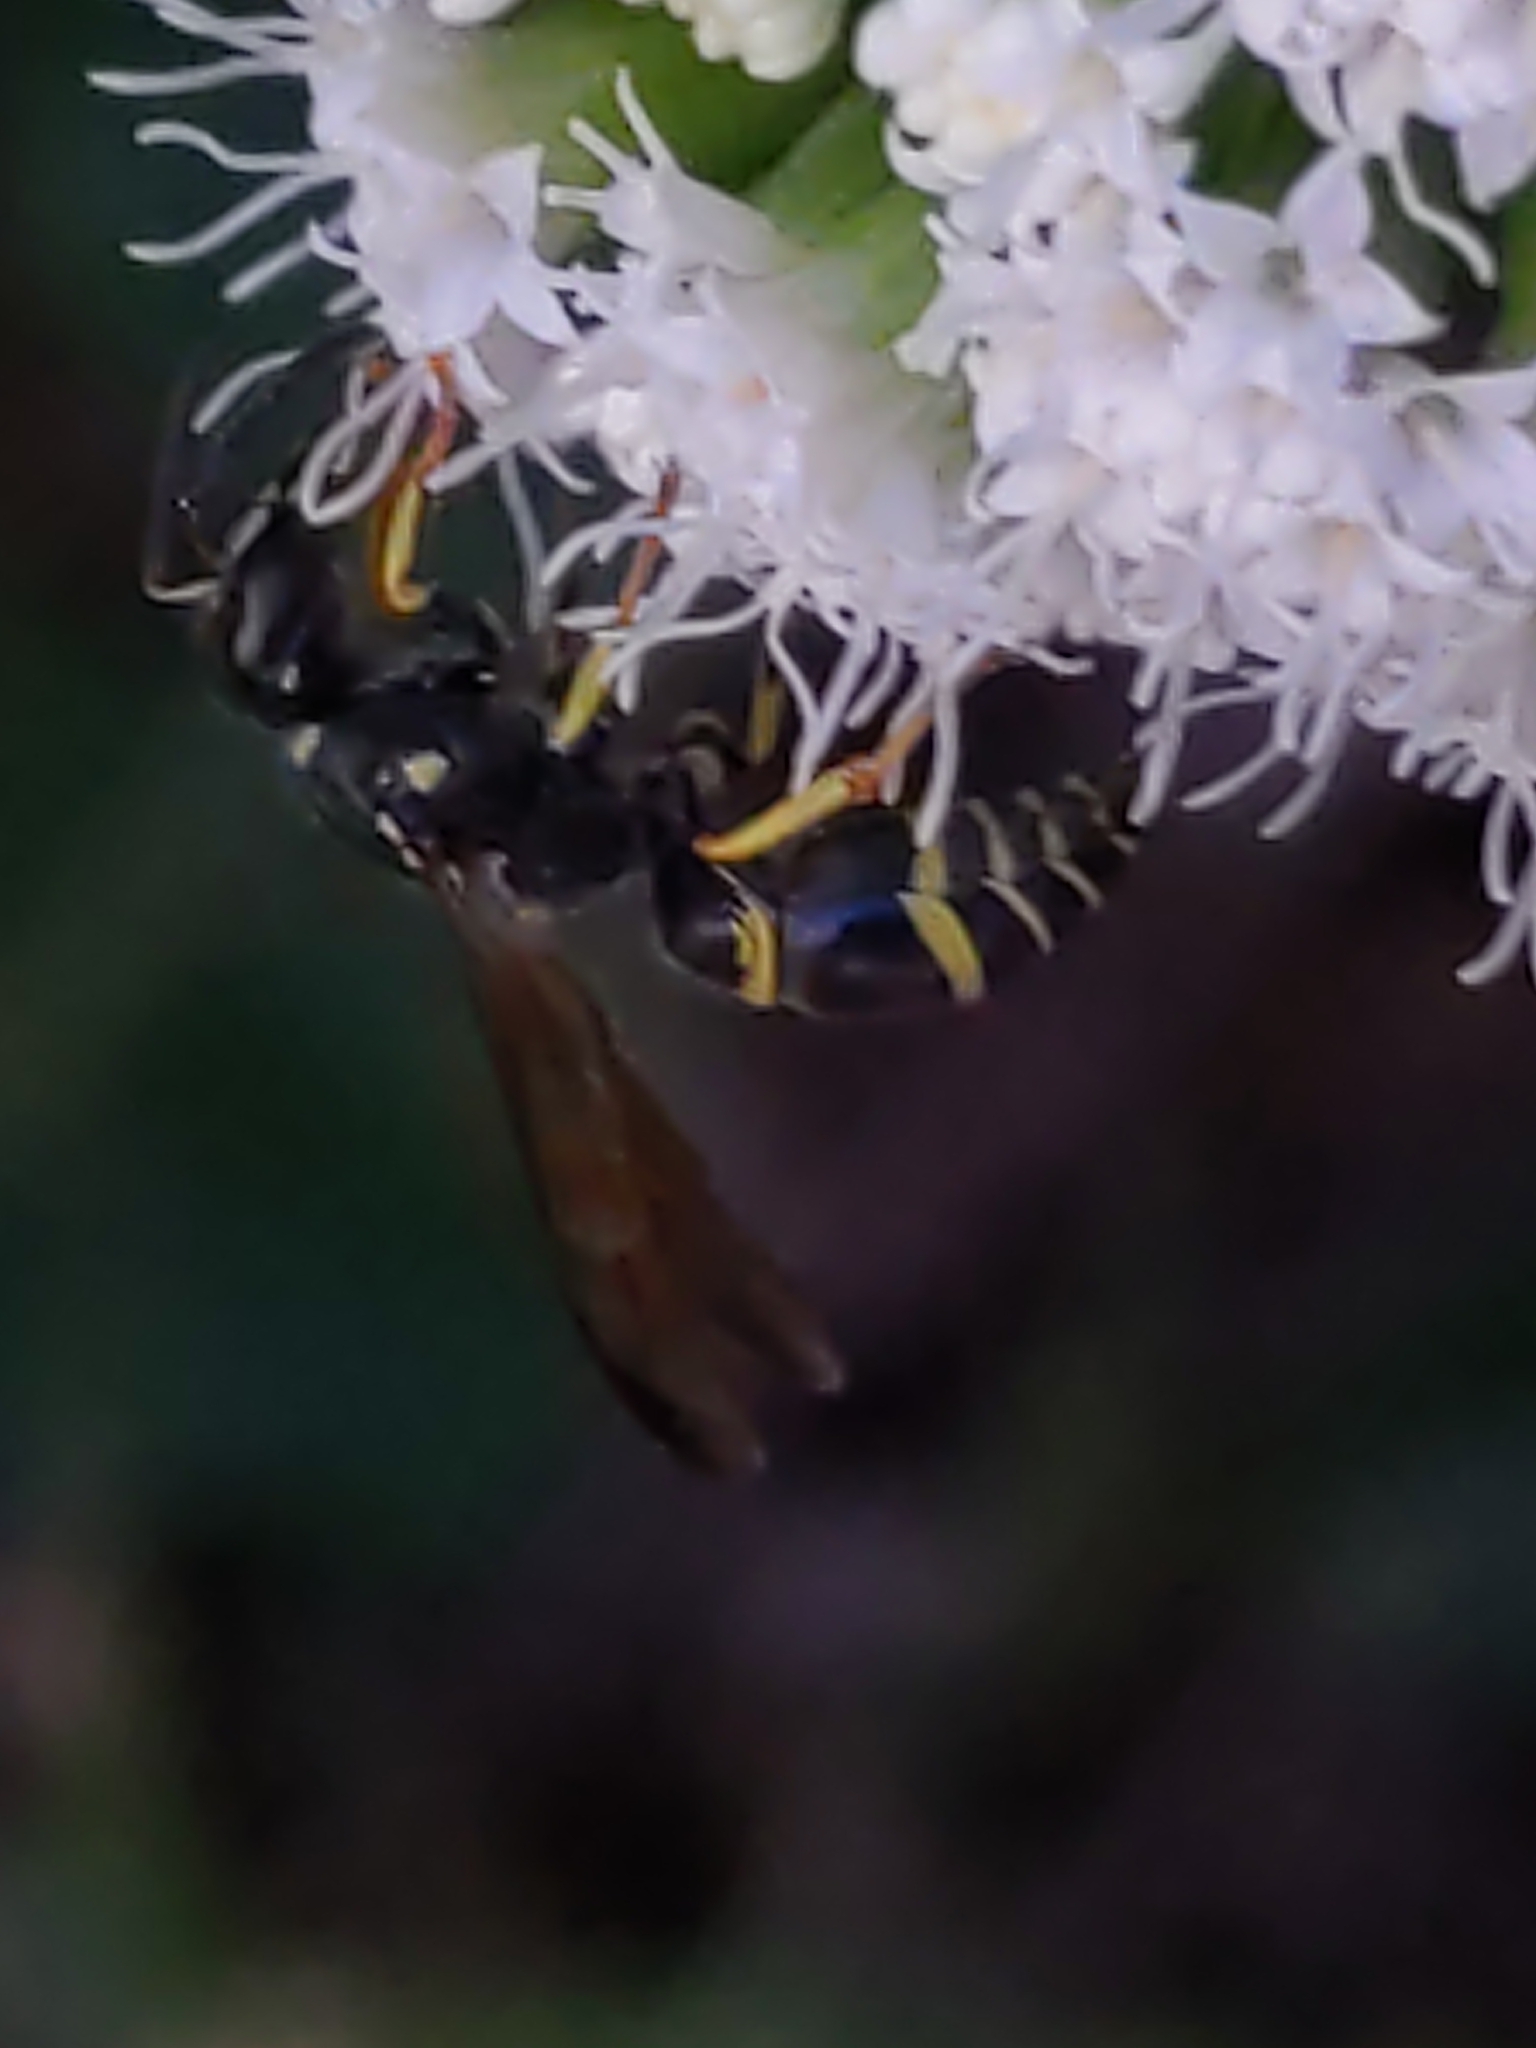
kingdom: Animalia
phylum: Arthropoda
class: Insecta
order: Hymenoptera
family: Vespidae
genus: Ancistrocerus
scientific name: Ancistrocerus adiabatus
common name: Bramble mason wasp
